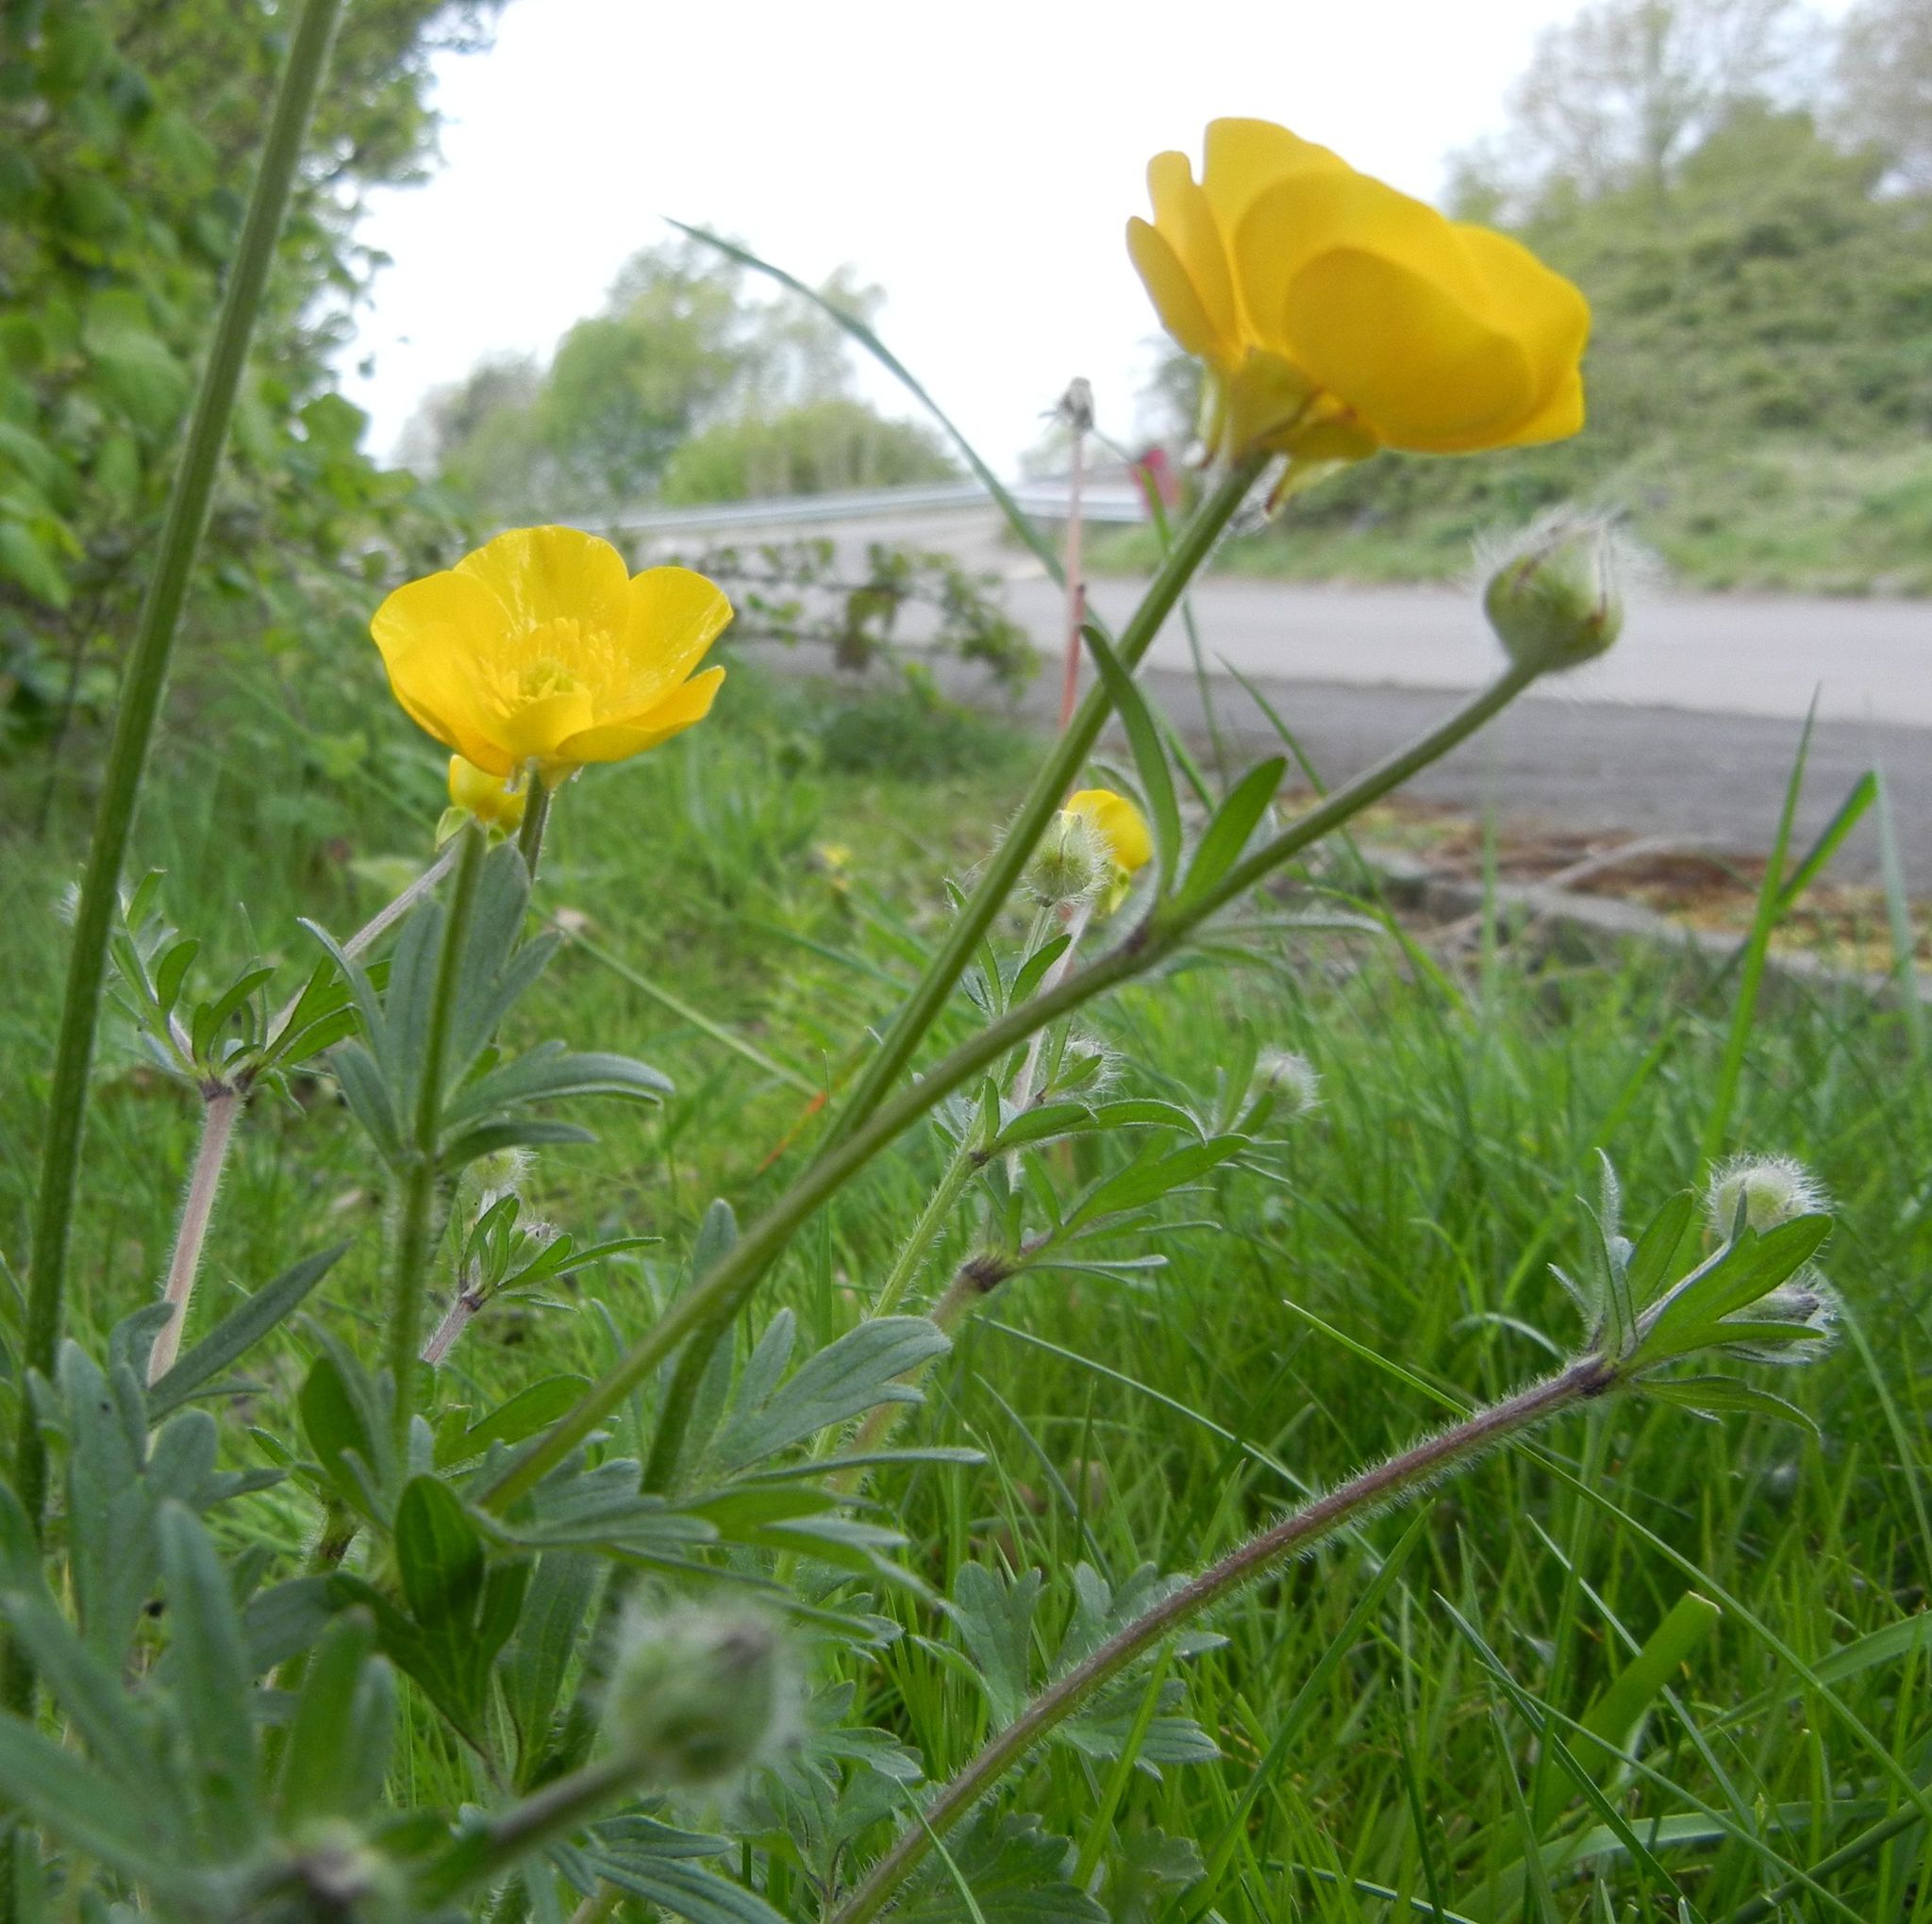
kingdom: Plantae
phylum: Tracheophyta
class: Magnoliopsida
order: Ranunculales
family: Ranunculaceae
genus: Ranunculus
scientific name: Ranunculus bulbosus
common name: Bulbous buttercup
